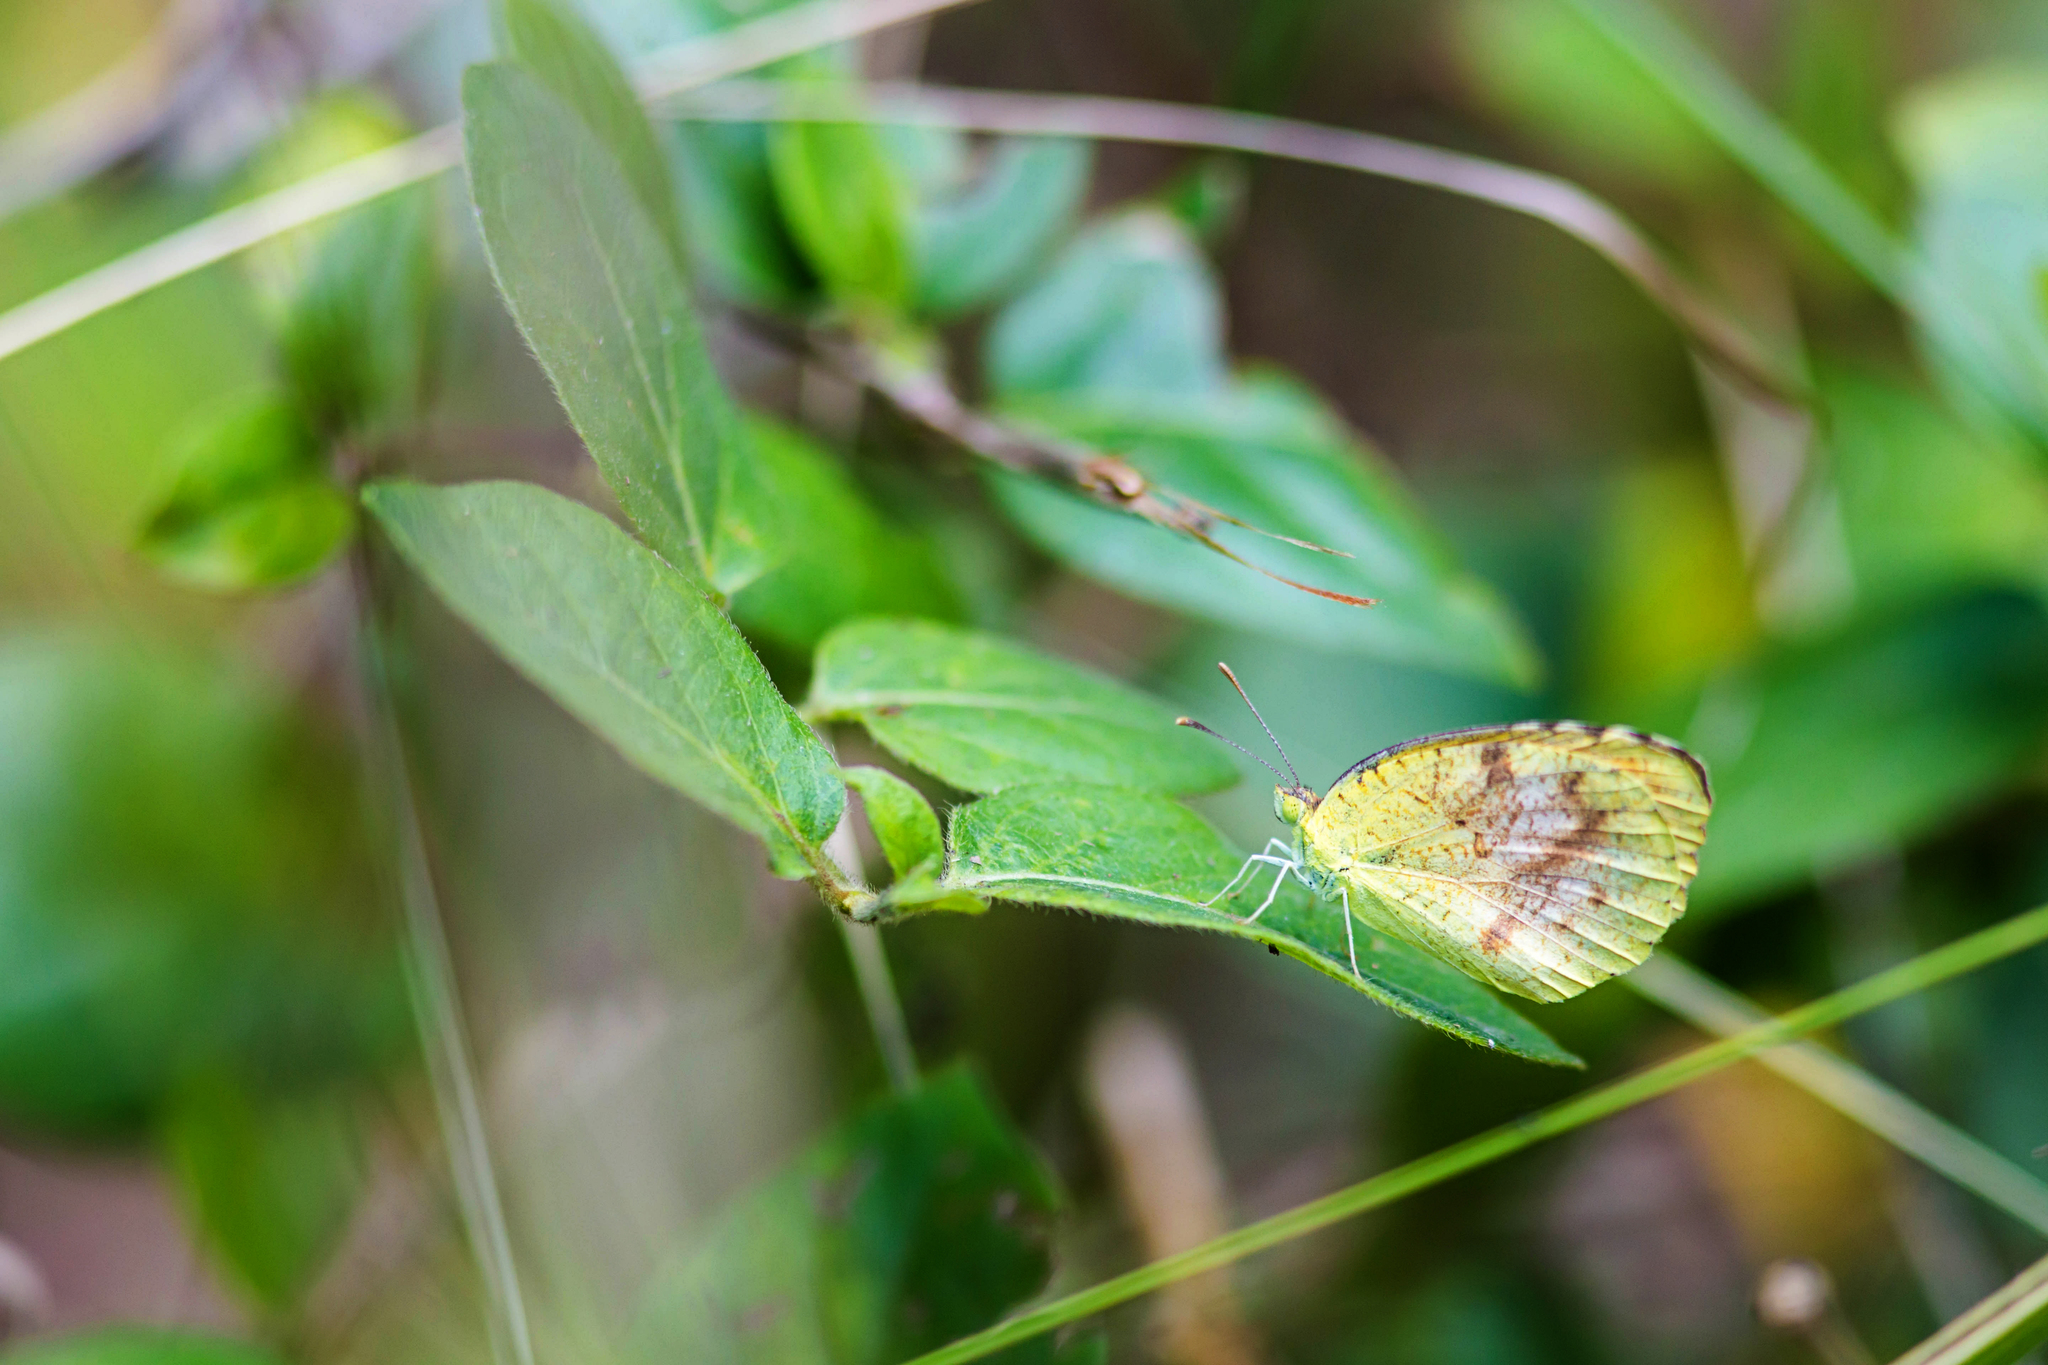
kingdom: Animalia
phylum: Arthropoda
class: Insecta
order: Lepidoptera
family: Pieridae
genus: Abaeis
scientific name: Abaeis nicippe
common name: Sleepy orange
